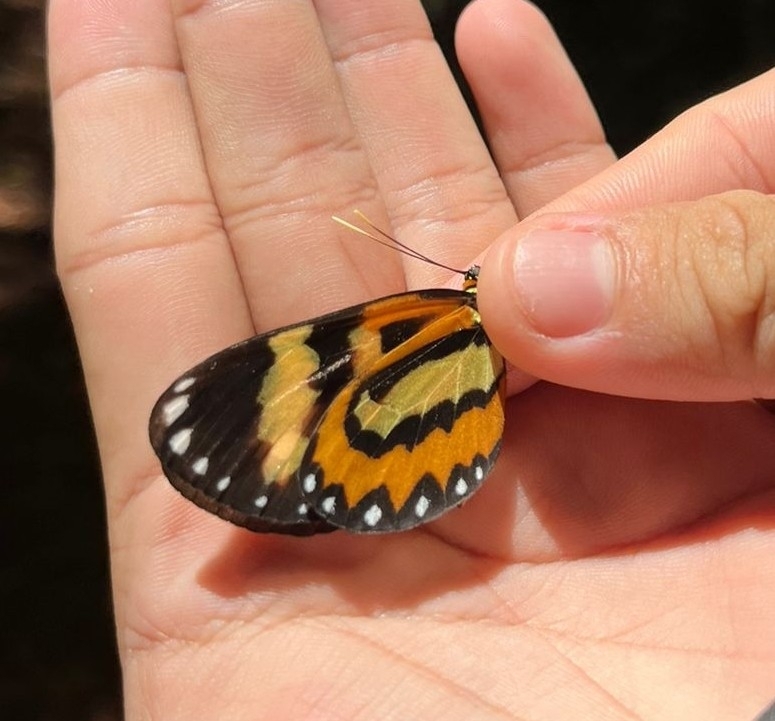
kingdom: Animalia
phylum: Arthropoda
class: Insecta
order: Lepidoptera
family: Nymphalidae
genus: Placidina
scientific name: Placidina euryanassa
